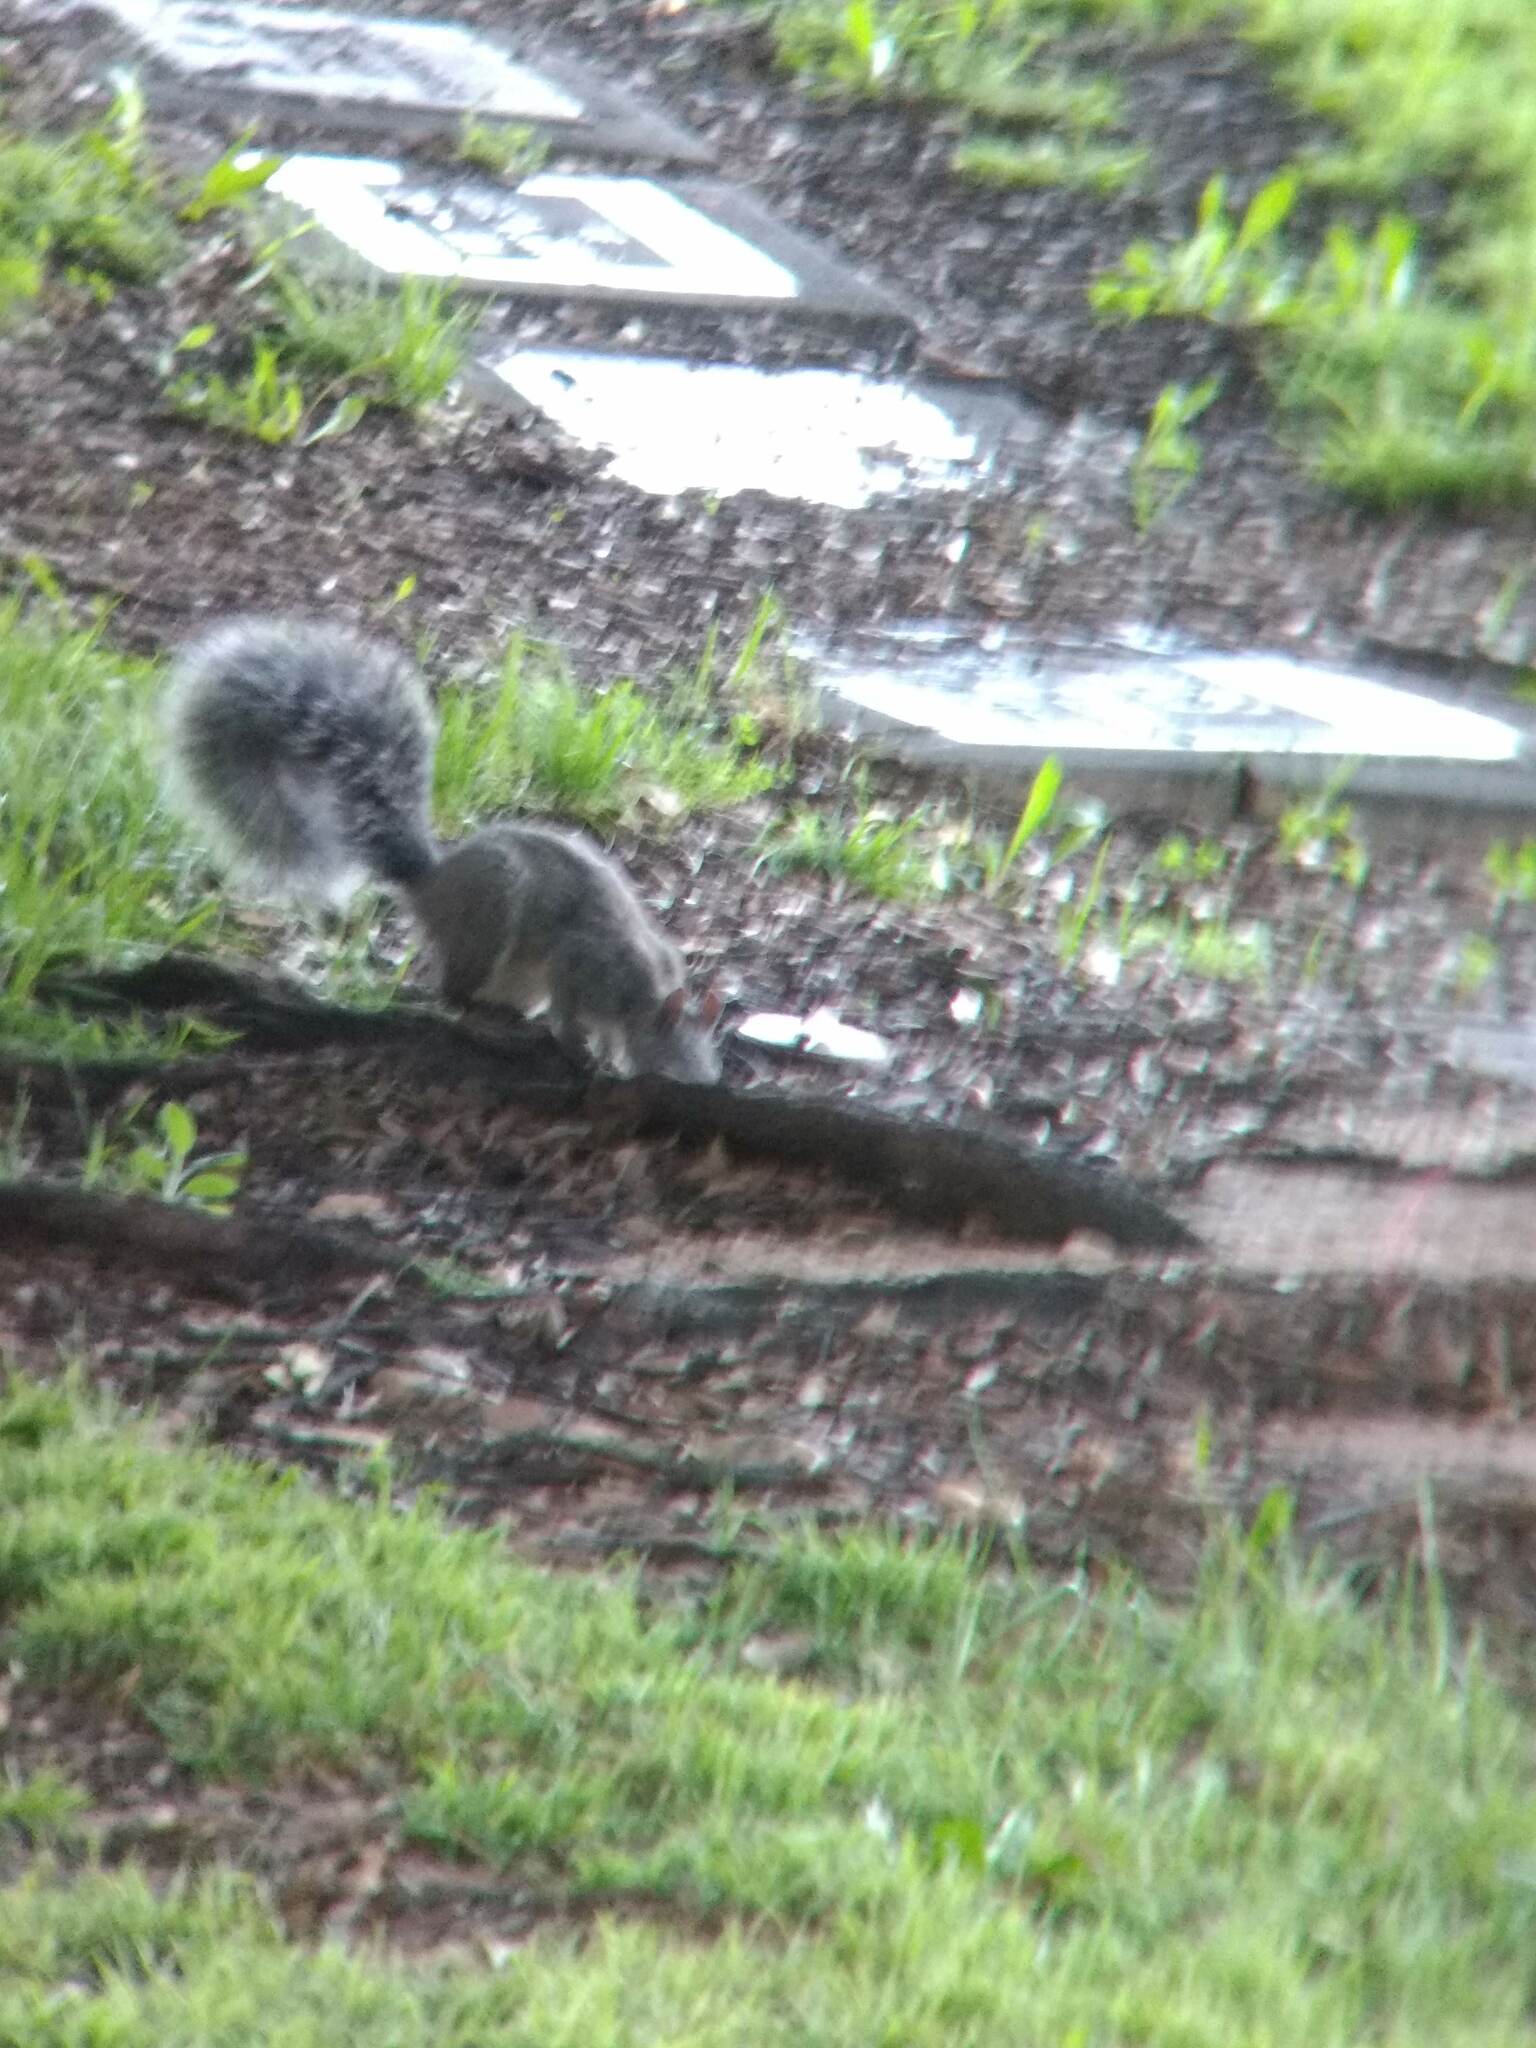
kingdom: Animalia
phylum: Chordata
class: Mammalia
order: Rodentia
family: Sciuridae
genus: Sciurus
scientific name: Sciurus griseus
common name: Western gray squirrel
